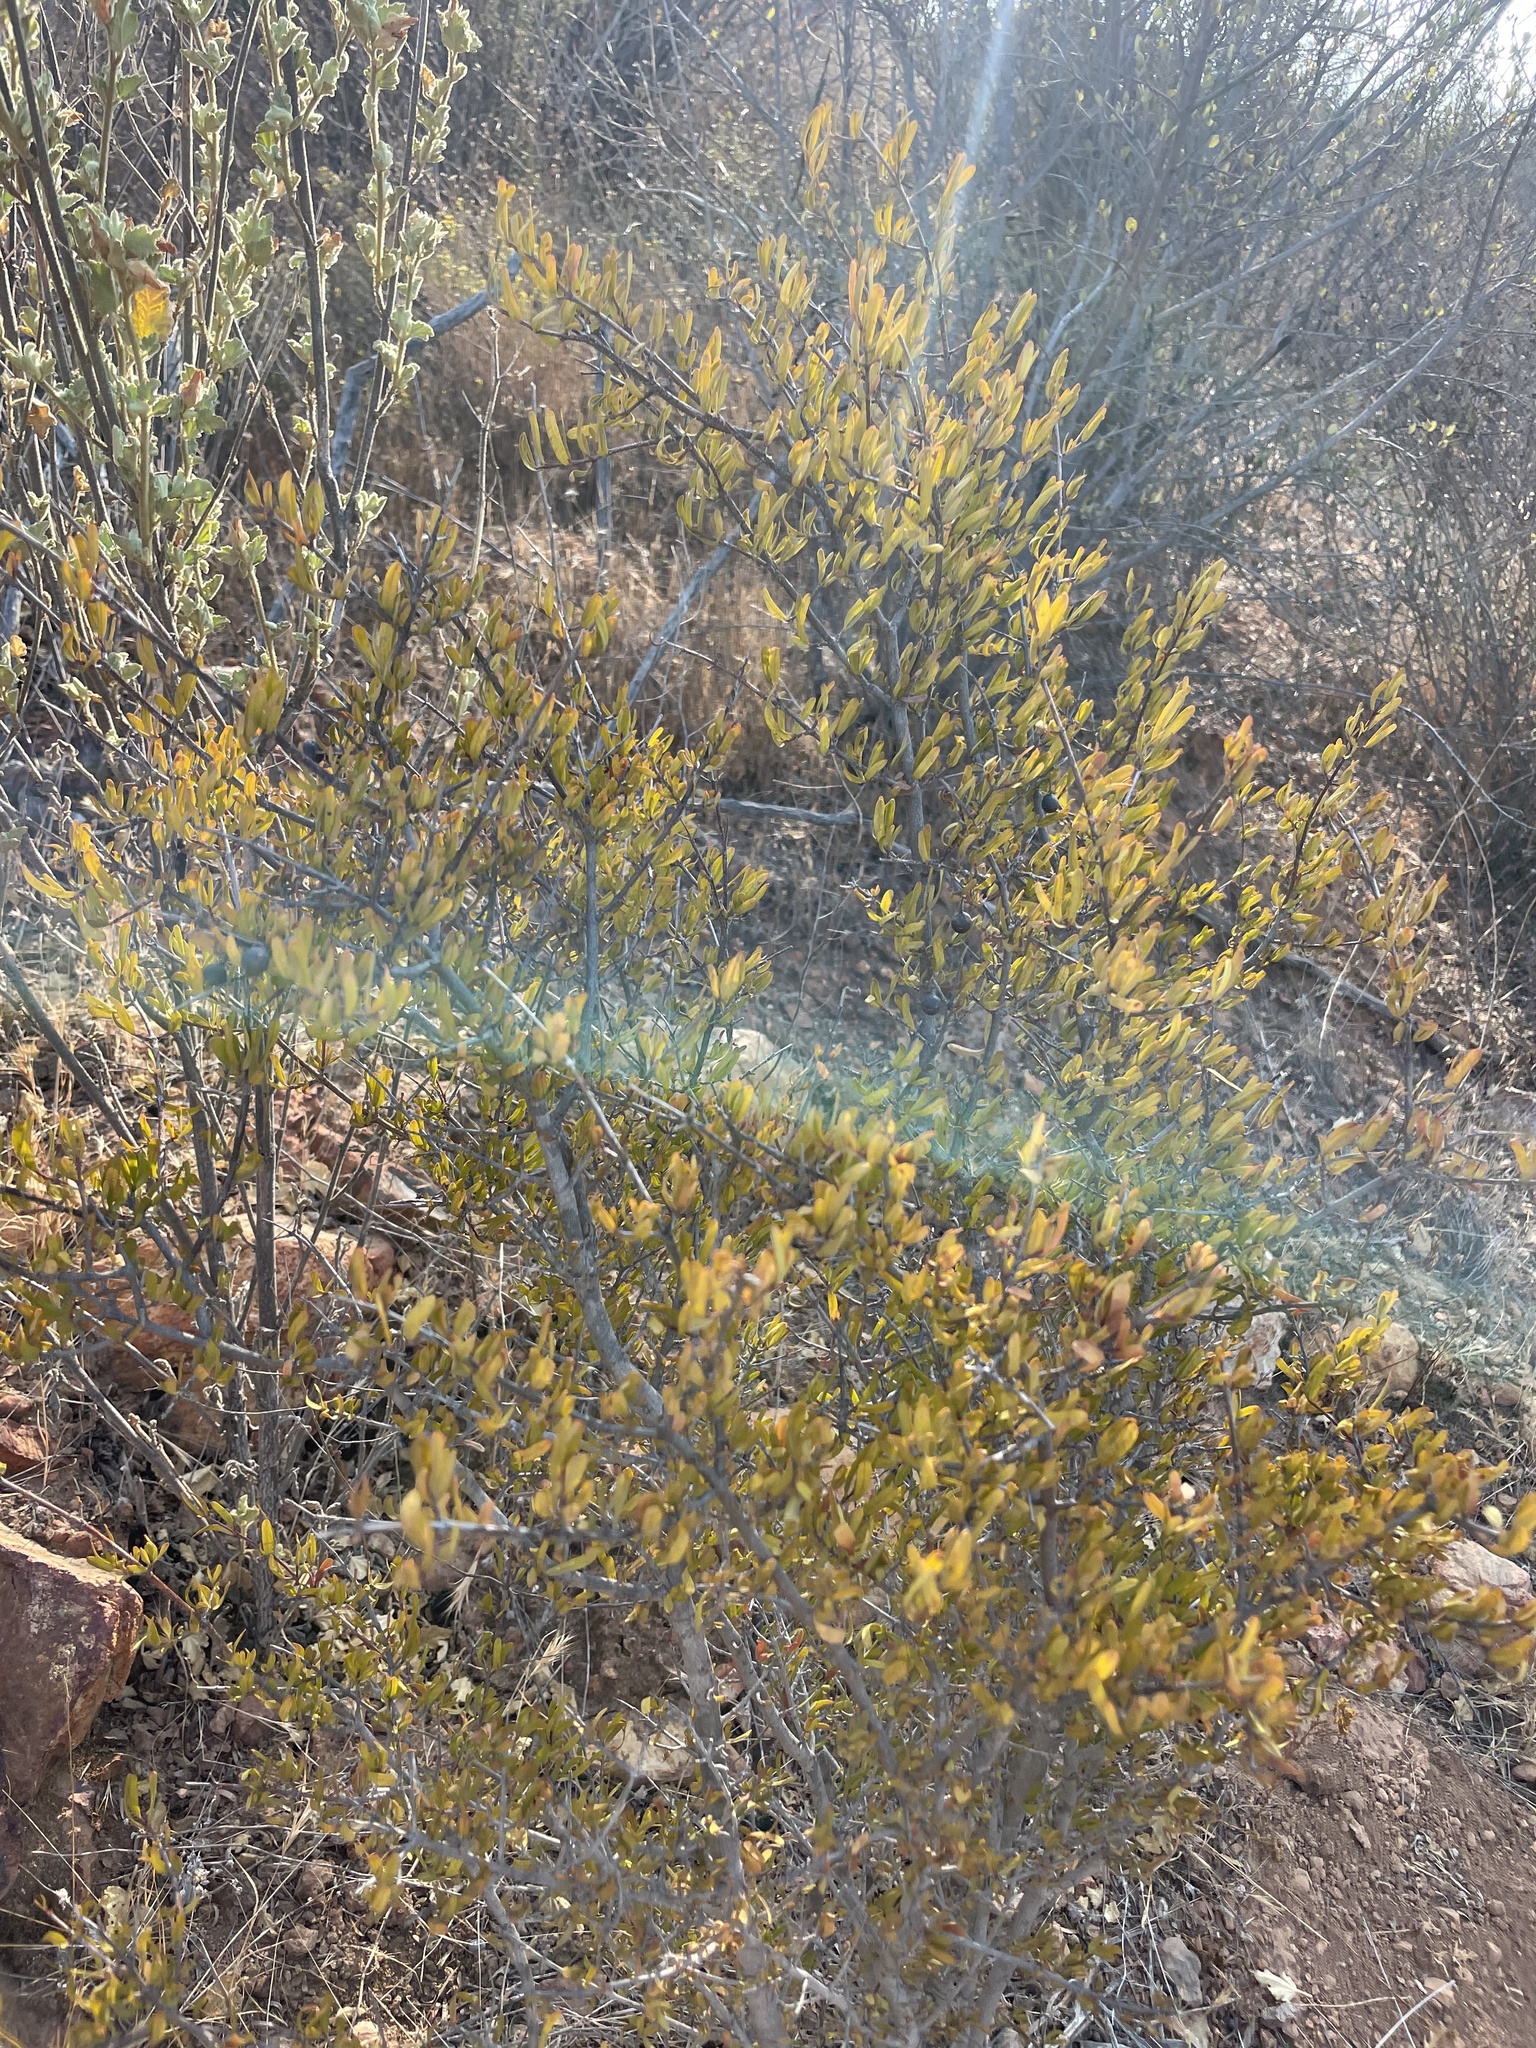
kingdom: Plantae
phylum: Tracheophyta
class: Magnoliopsida
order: Sapindales
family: Rutaceae
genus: Cneoridium
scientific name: Cneoridium dumosum
